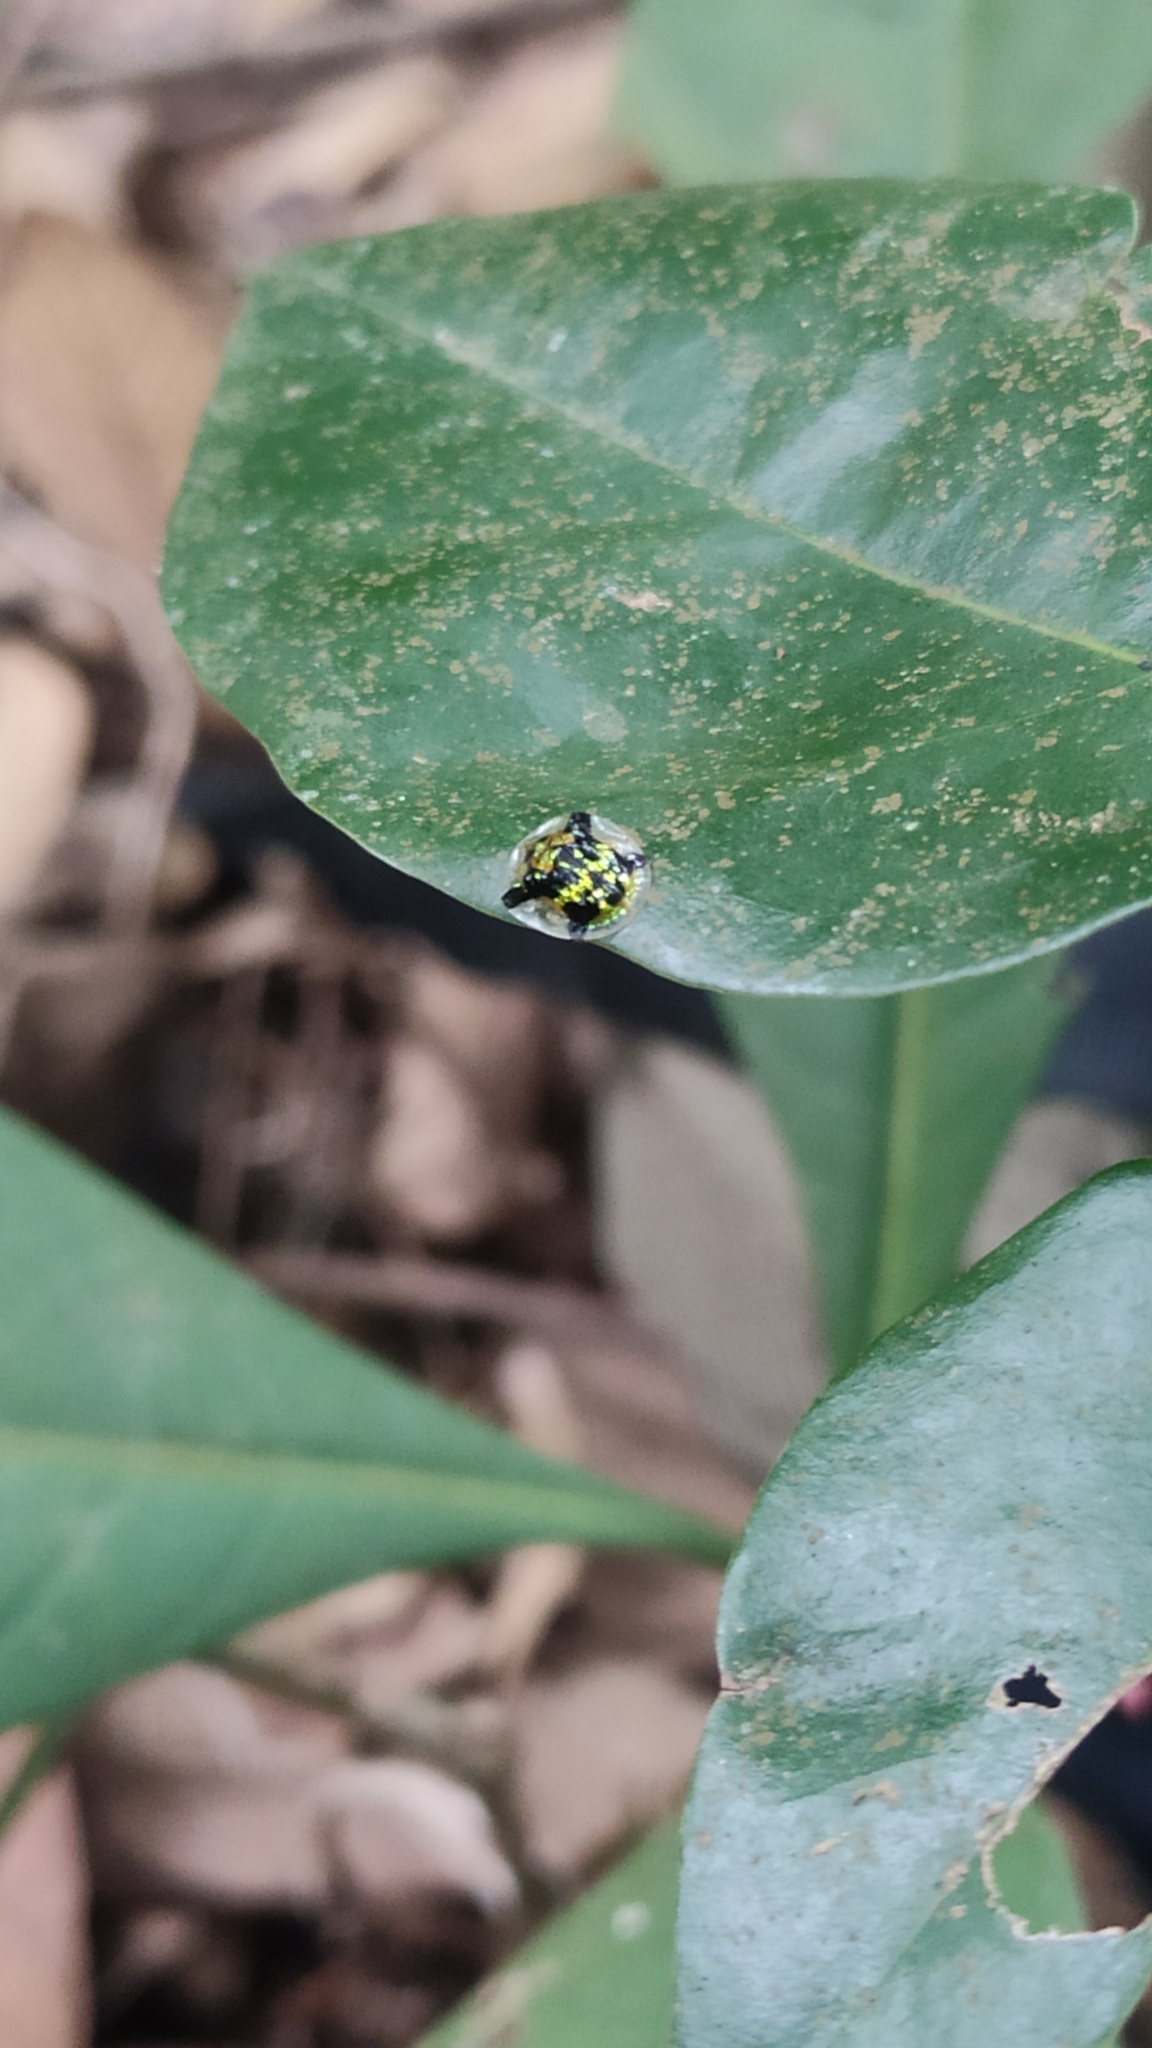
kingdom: Animalia
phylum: Arthropoda
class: Insecta
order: Coleoptera
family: Chrysomelidae
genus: Nilgiraspis
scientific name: Nilgiraspis andrewesi
